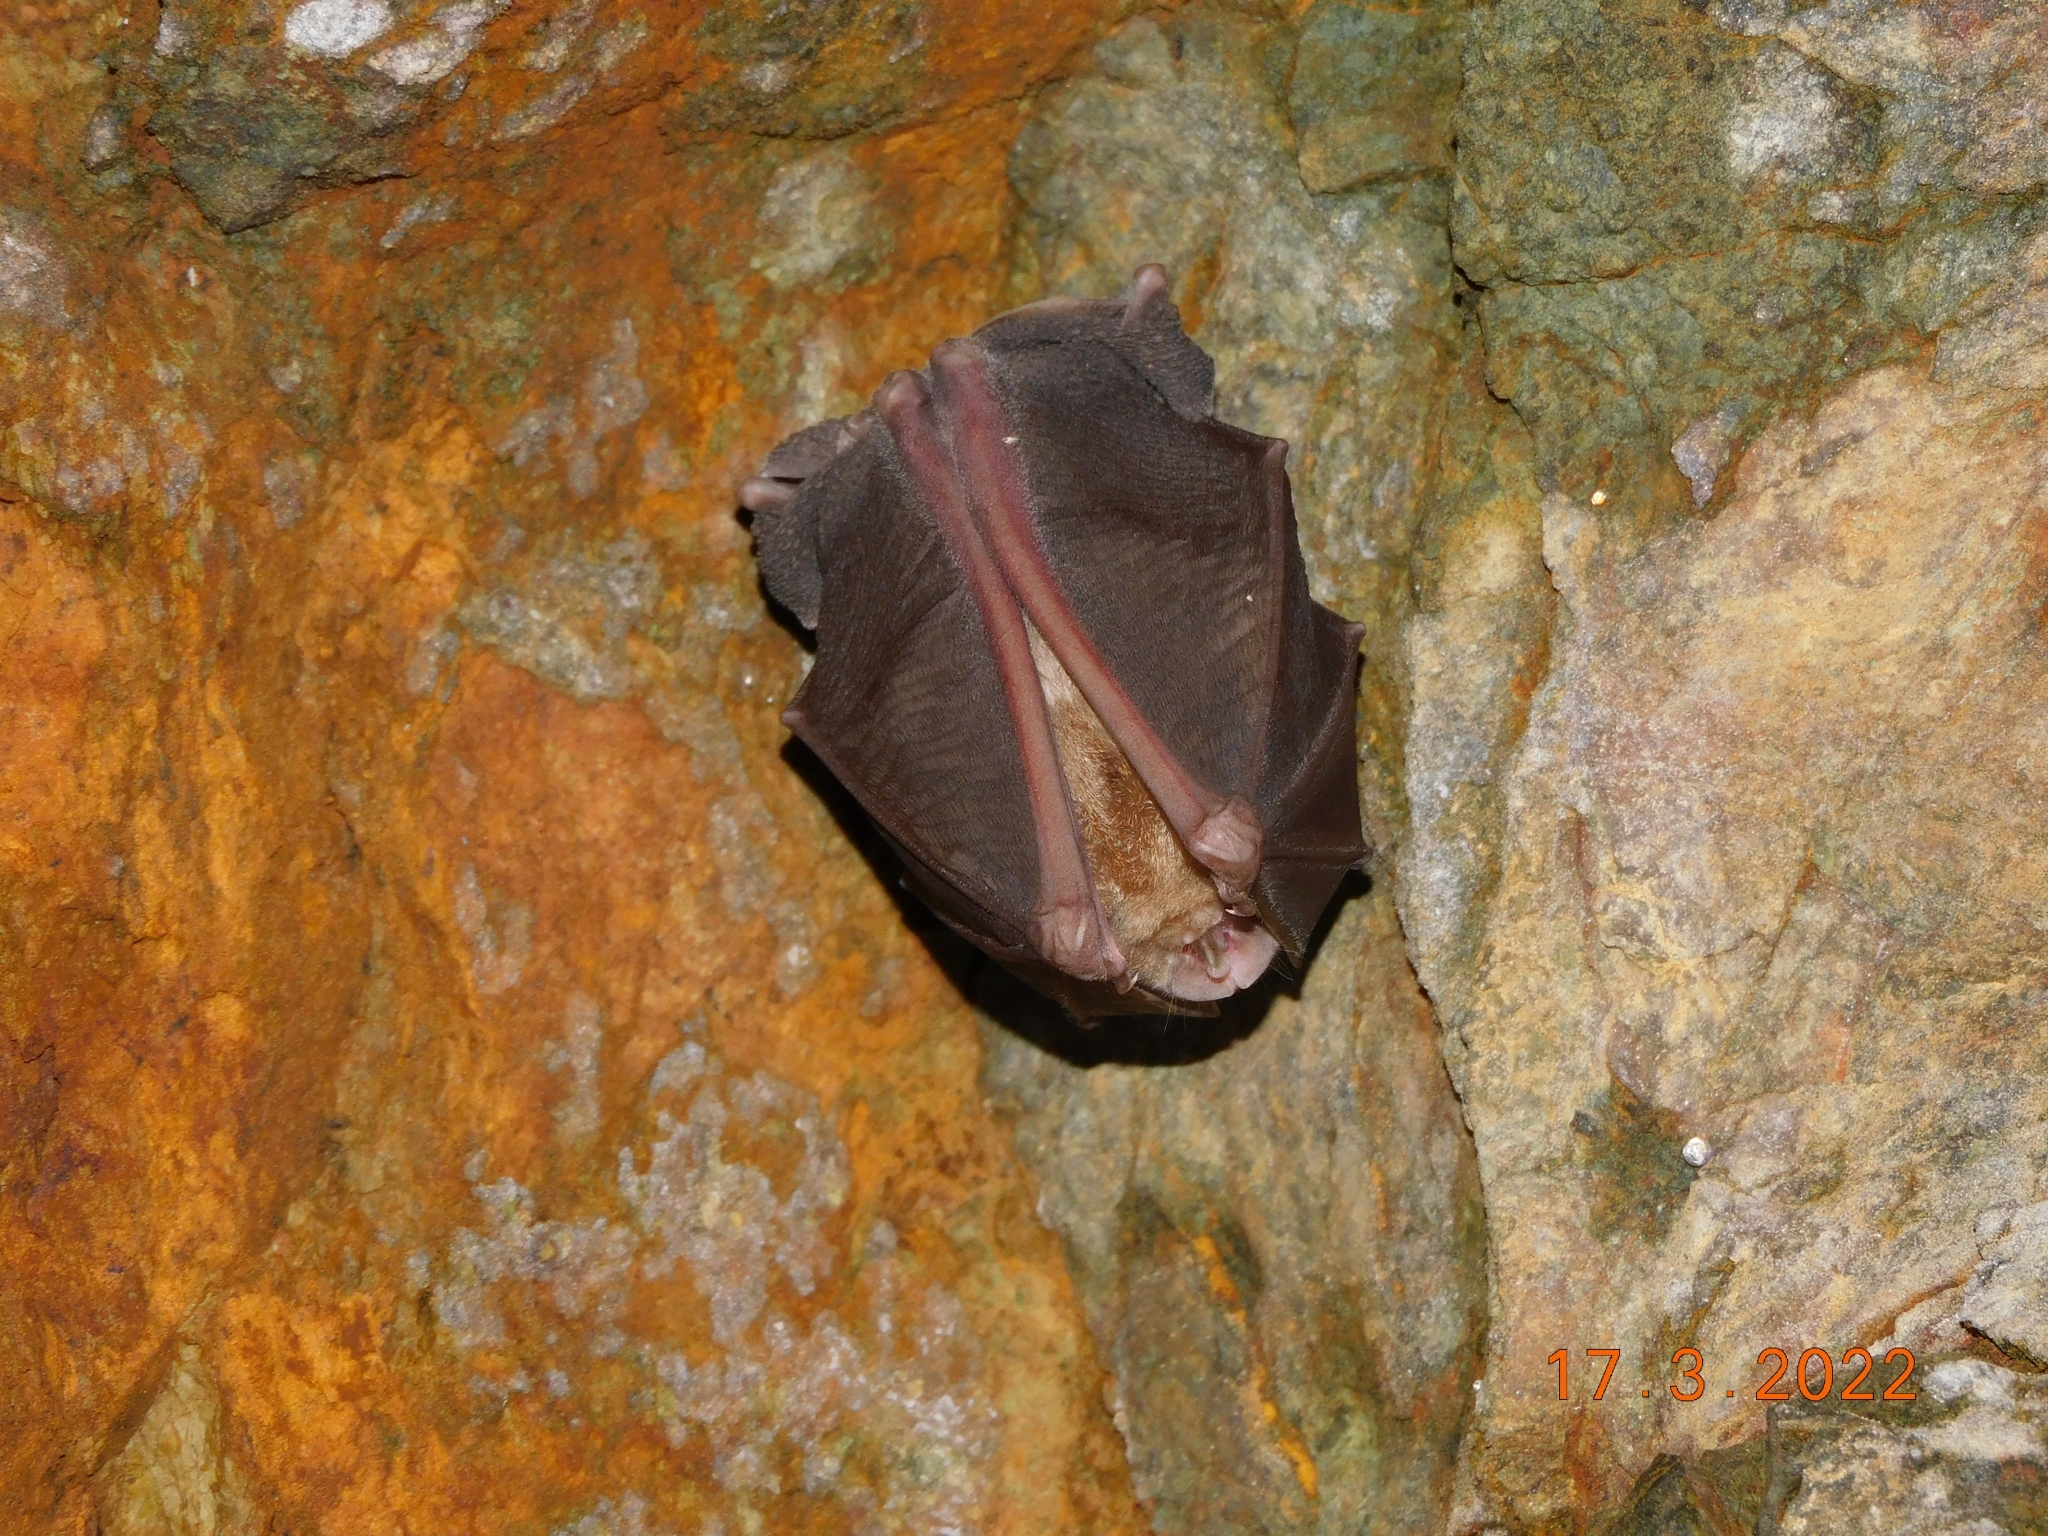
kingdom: Animalia
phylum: Chordata
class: Mammalia
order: Chiroptera
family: Rhinolophidae
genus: Rhinolophus
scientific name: Rhinolophus ferrumequinum
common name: Greater horseshoe bat
